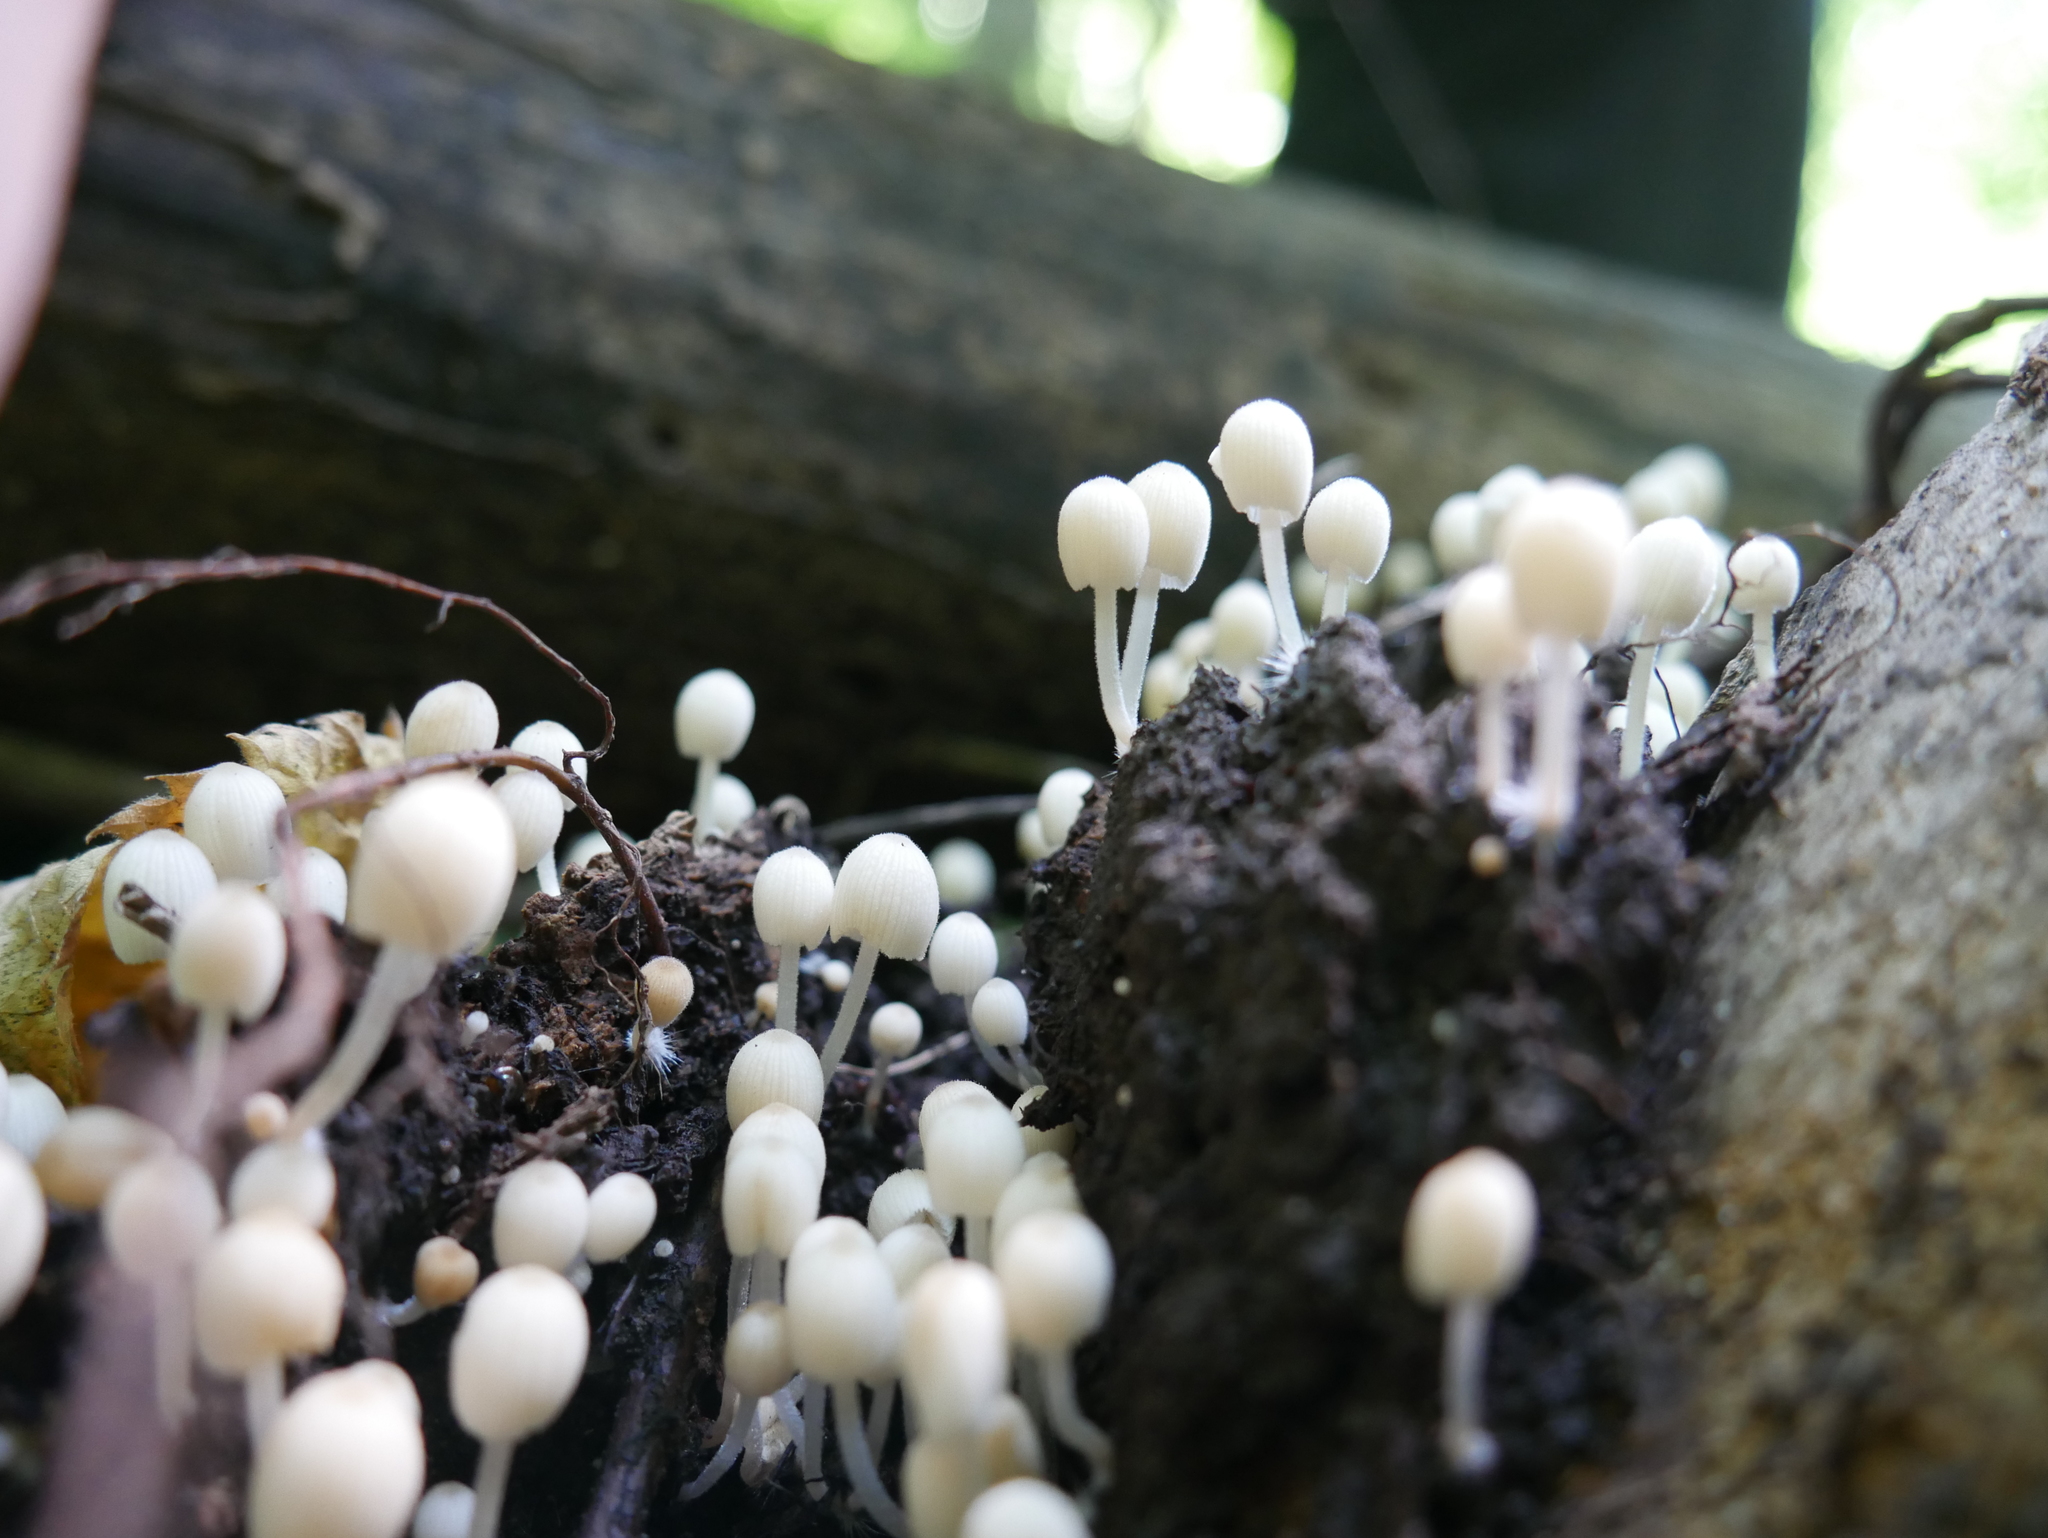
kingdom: Fungi
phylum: Basidiomycota
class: Agaricomycetes
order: Agaricales
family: Psathyrellaceae
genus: Coprinellus
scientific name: Coprinellus disseminatus
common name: Fairies' bonnets
